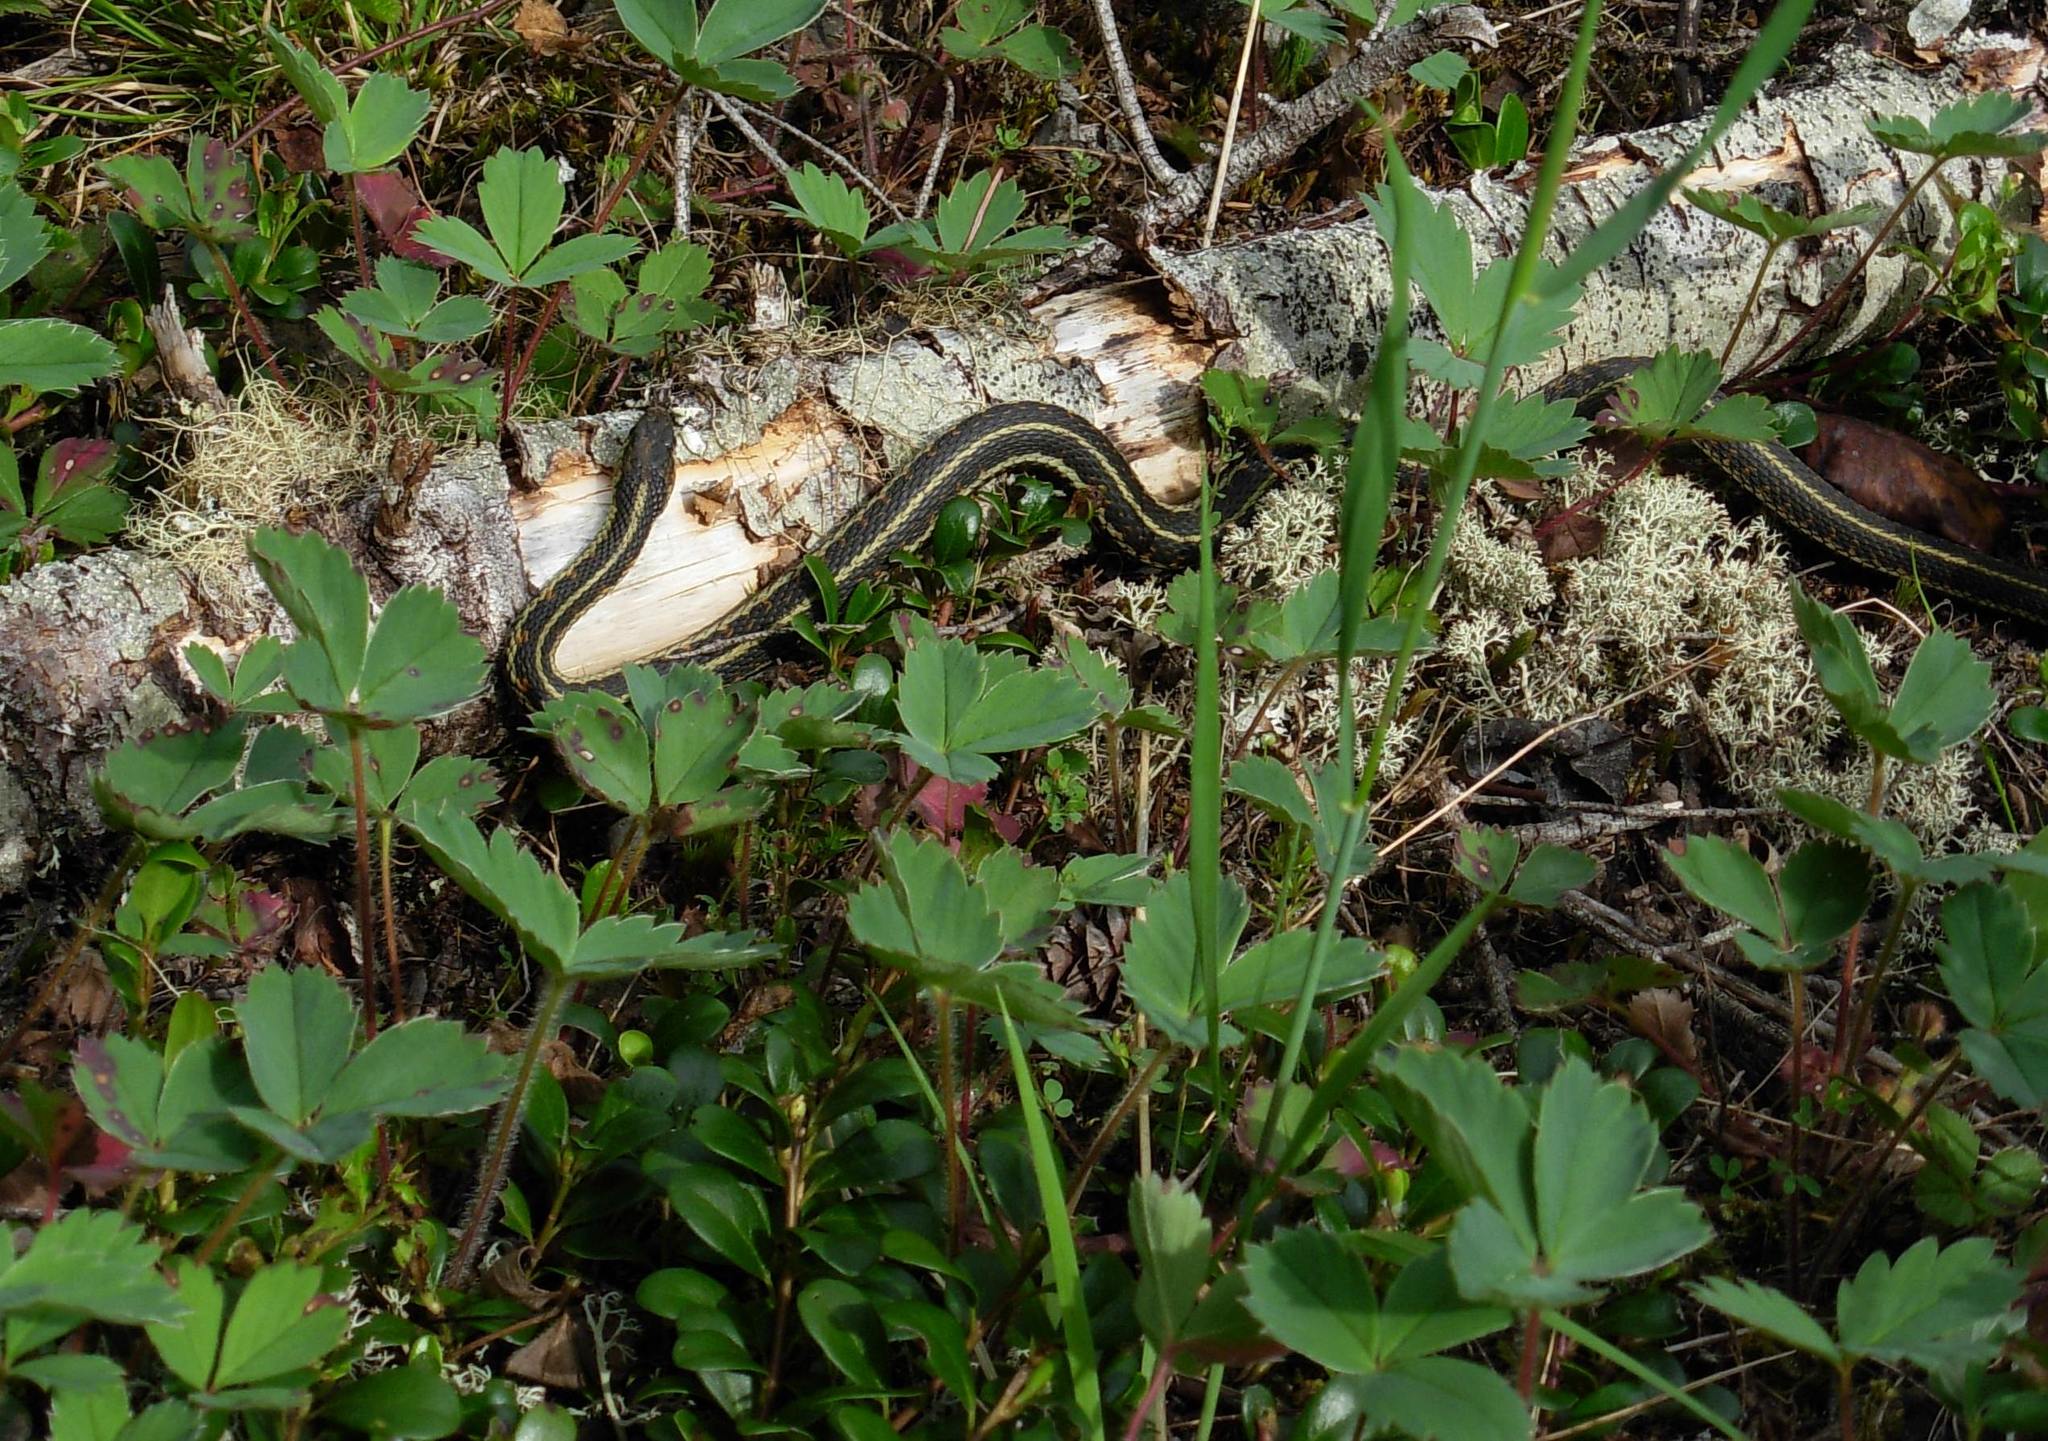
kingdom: Animalia
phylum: Chordata
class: Squamata
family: Colubridae
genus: Thamnophis
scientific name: Thamnophis sirtalis
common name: Common garter snake
